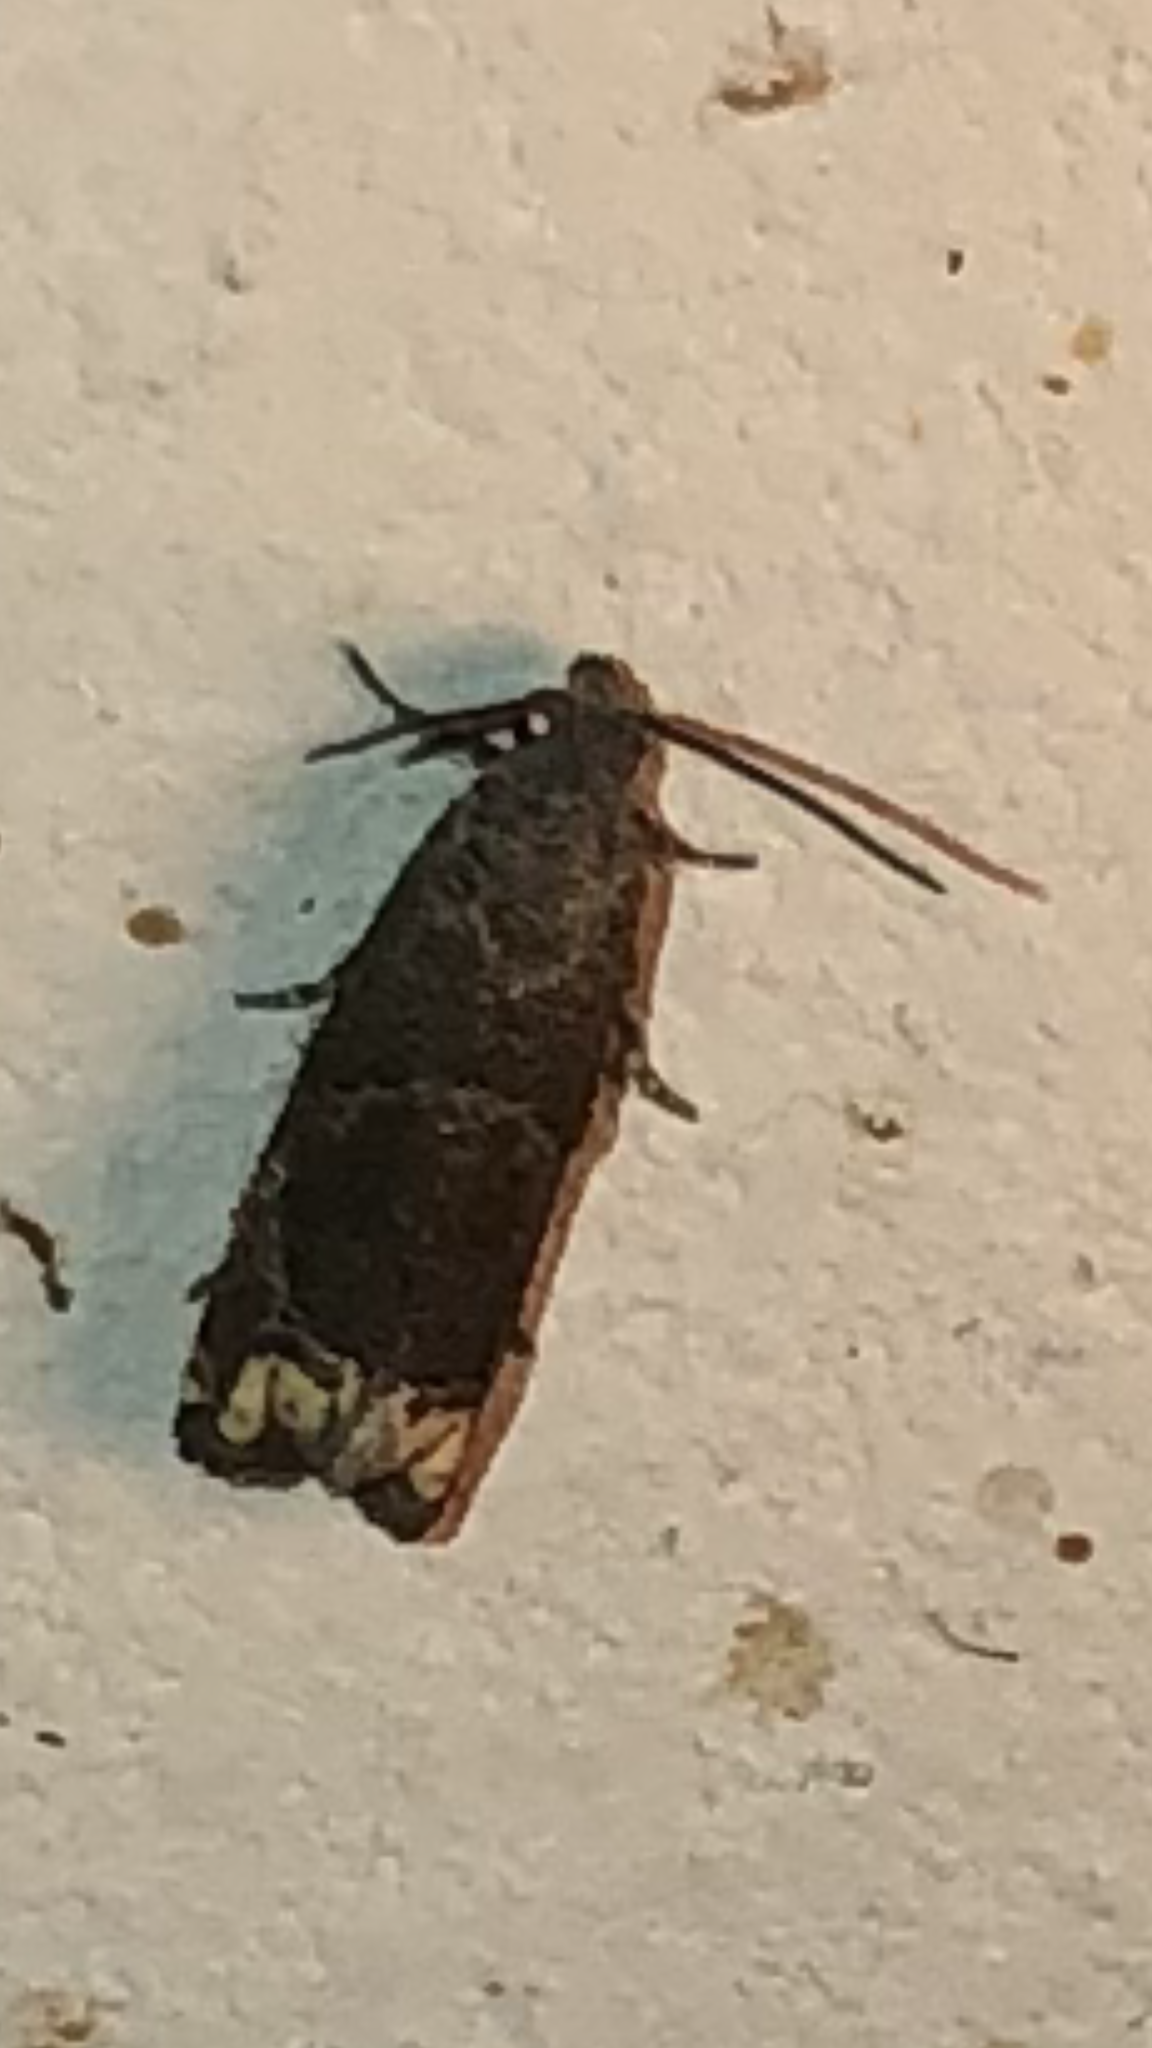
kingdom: Animalia
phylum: Arthropoda
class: Insecta
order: Lepidoptera
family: Tortricidae
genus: Epiblema
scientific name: Epiblema strenuana
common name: Ragweed borer moth
